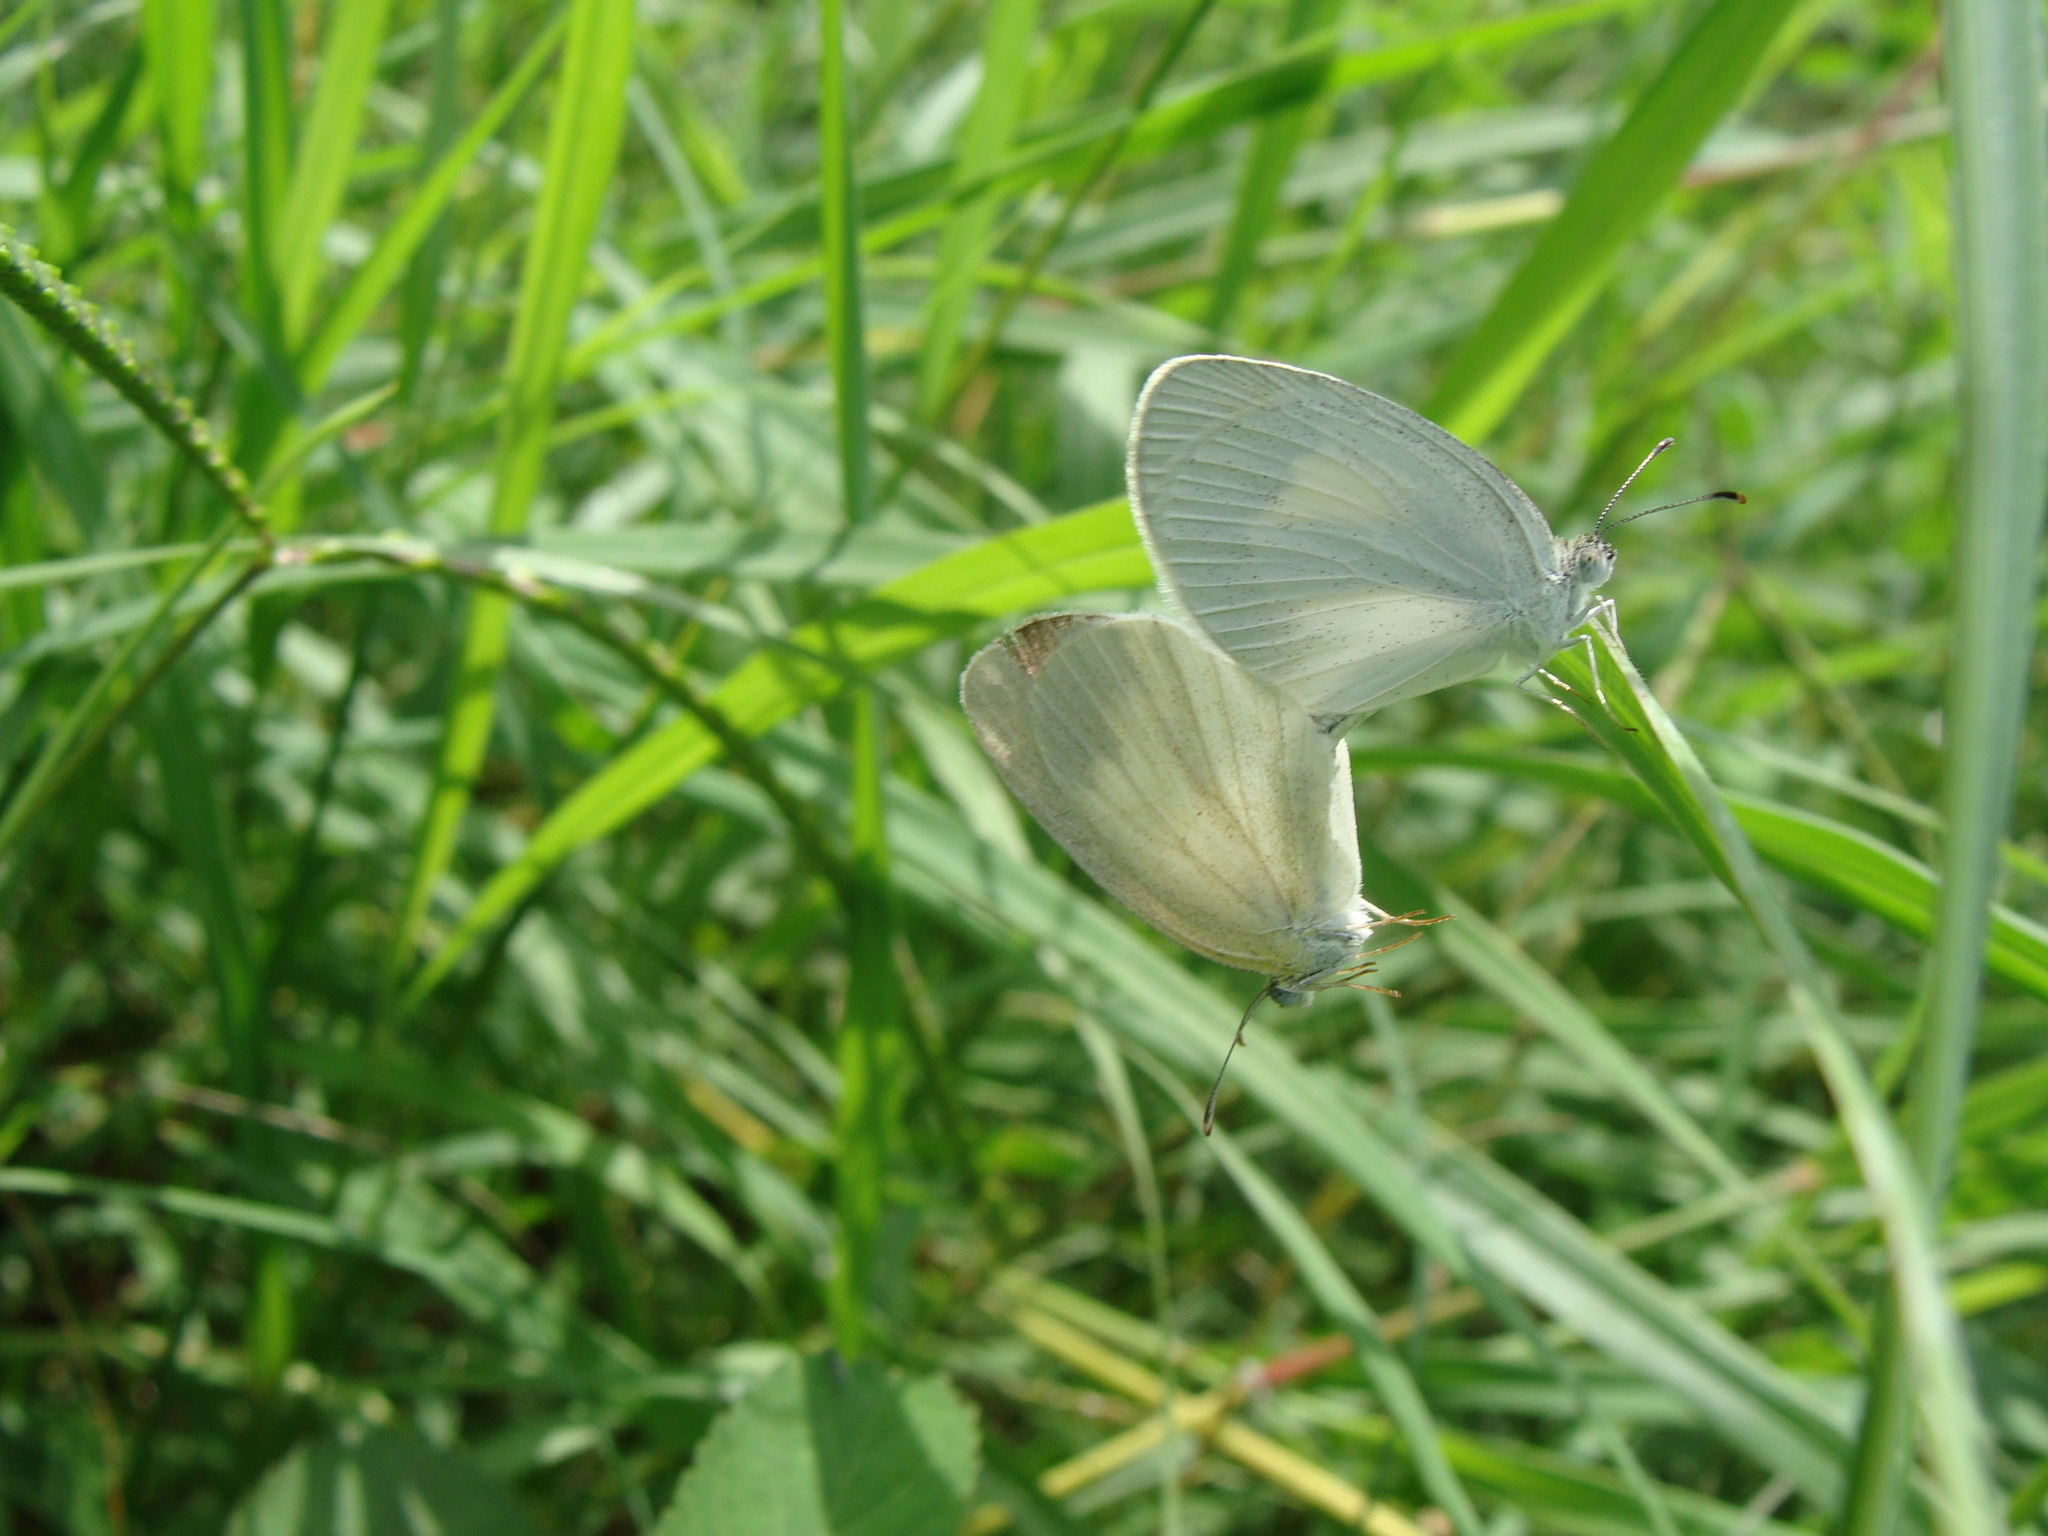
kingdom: Animalia
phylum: Arthropoda
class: Insecta
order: Lepidoptera
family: Pieridae
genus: Eurema
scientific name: Eurema daira
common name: Barred sulphur
